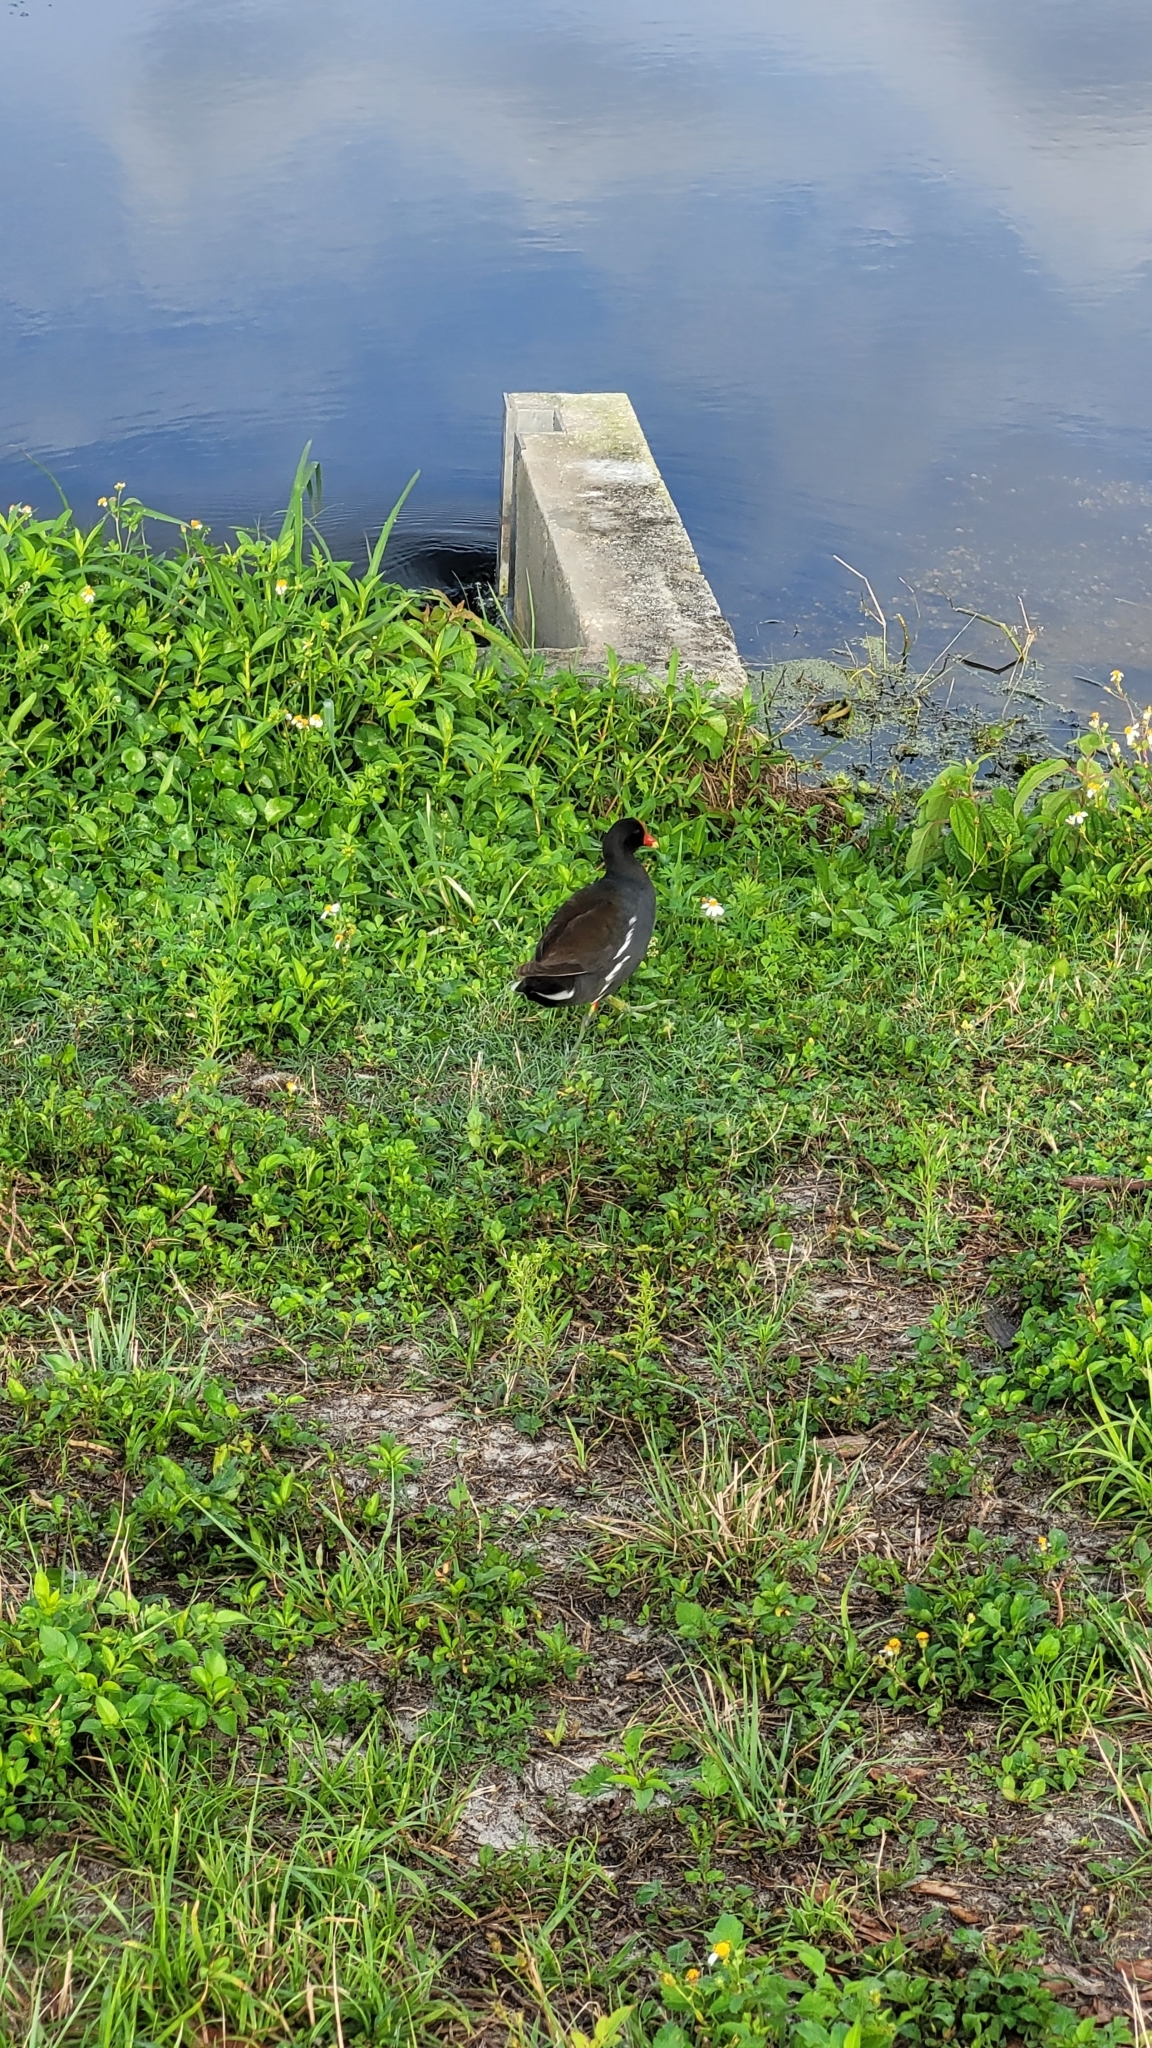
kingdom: Animalia
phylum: Chordata
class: Aves
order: Gruiformes
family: Rallidae
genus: Gallinula
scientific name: Gallinula chloropus
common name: Common moorhen
